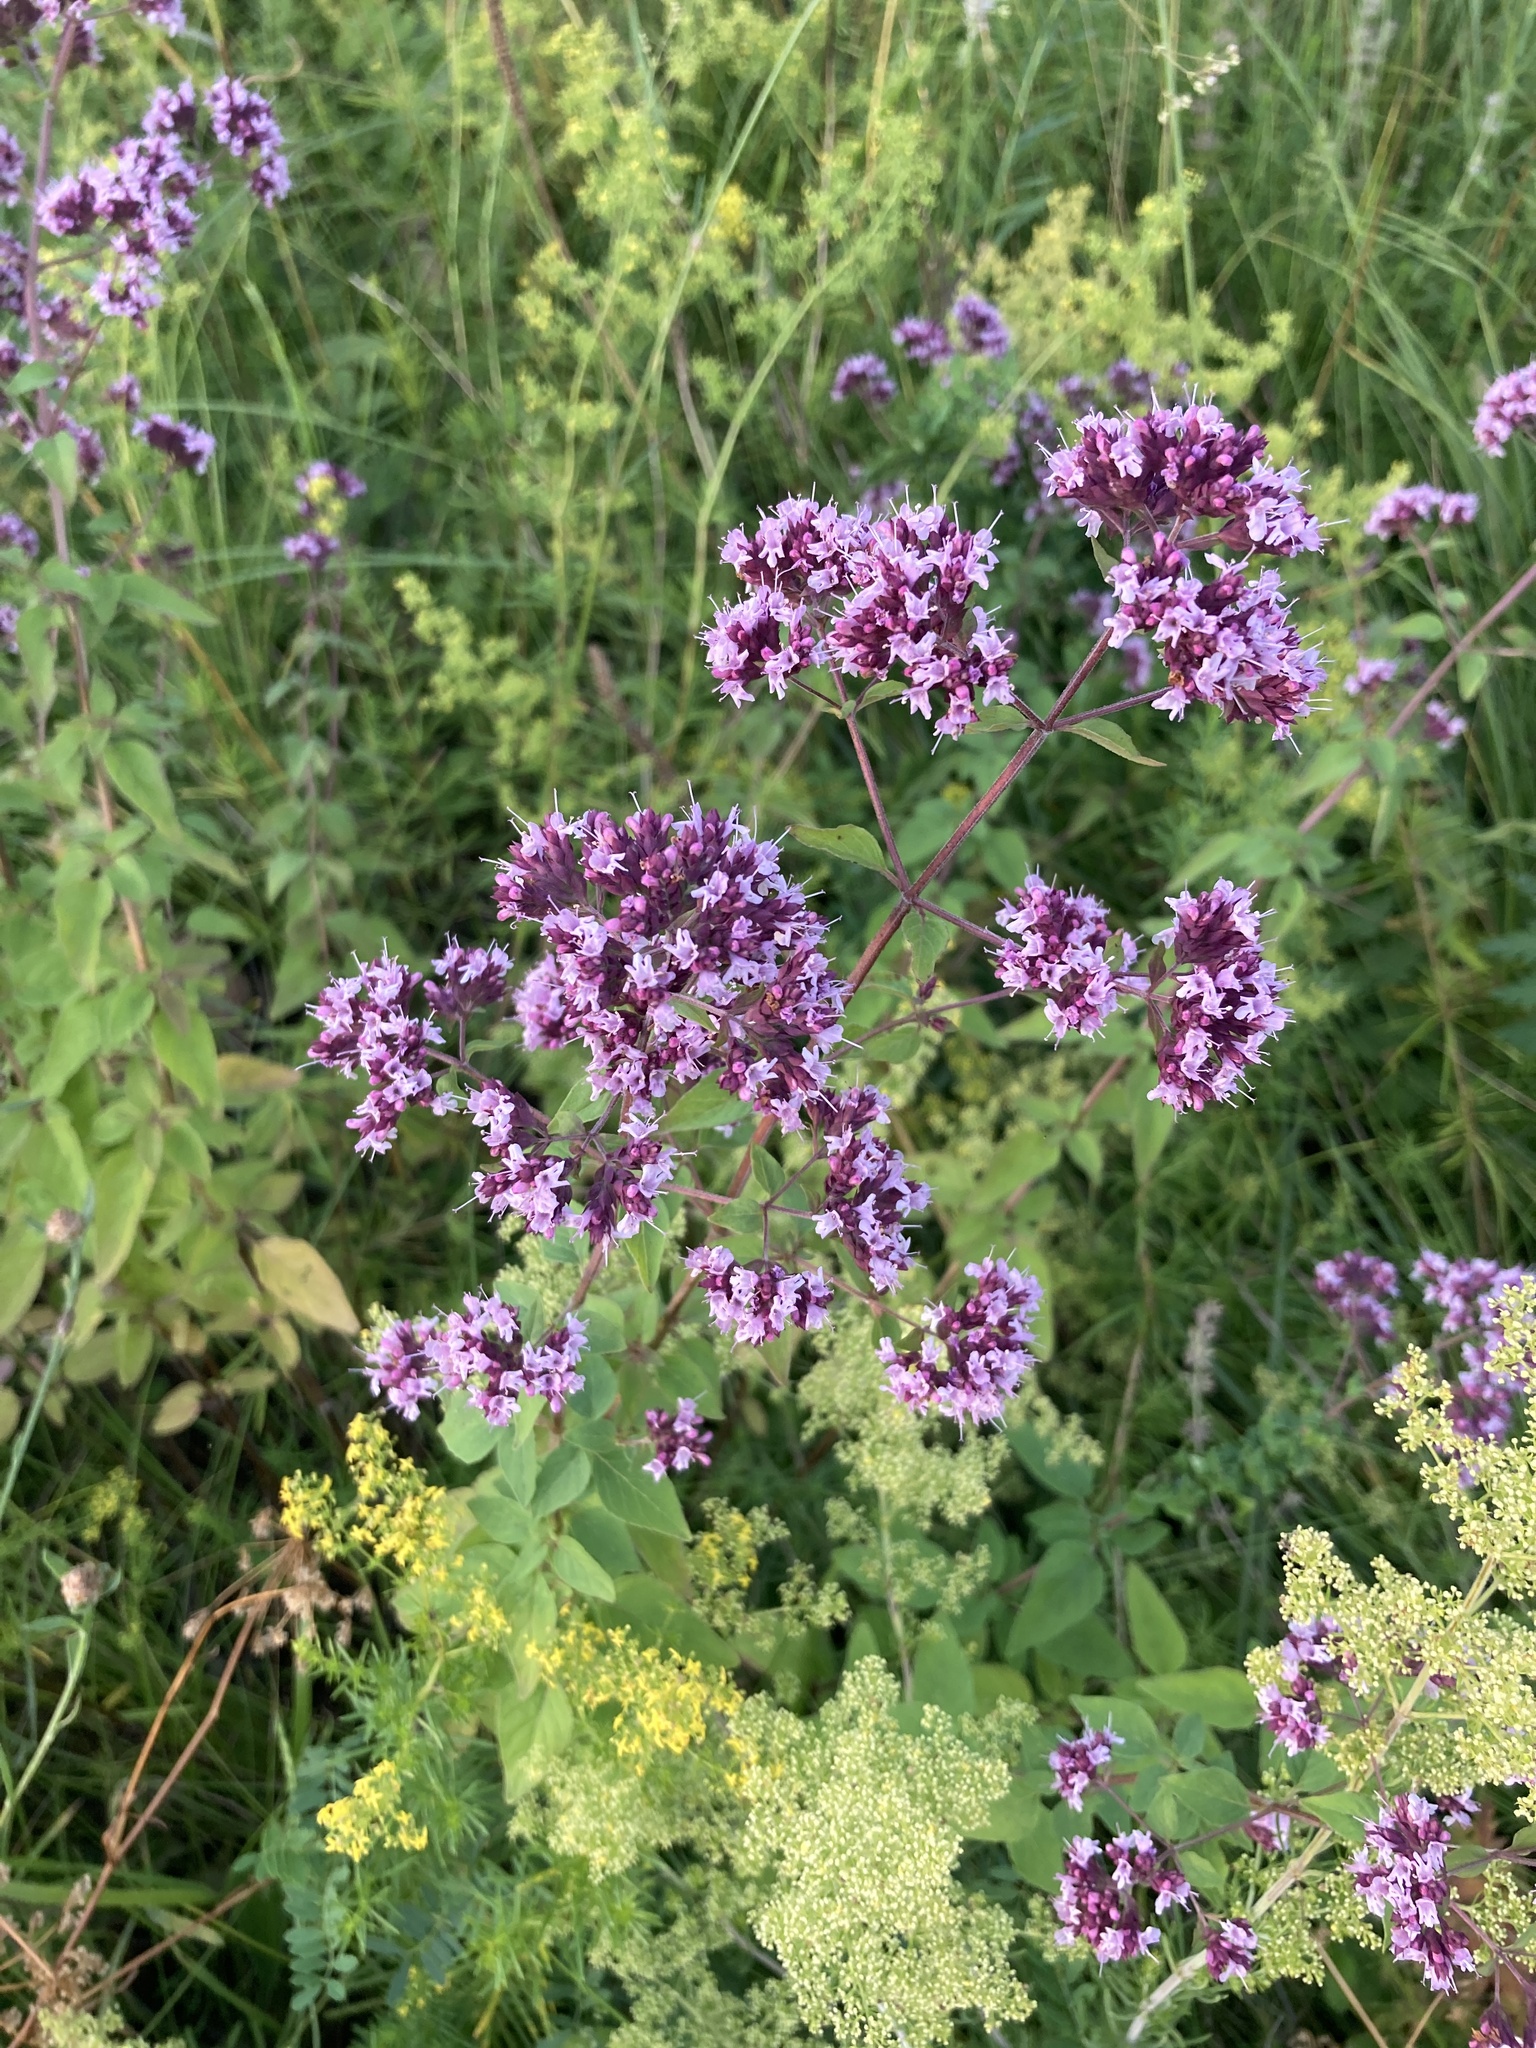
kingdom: Plantae
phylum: Tracheophyta
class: Magnoliopsida
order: Lamiales
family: Lamiaceae
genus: Origanum
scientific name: Origanum vulgare
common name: Wild marjoram
